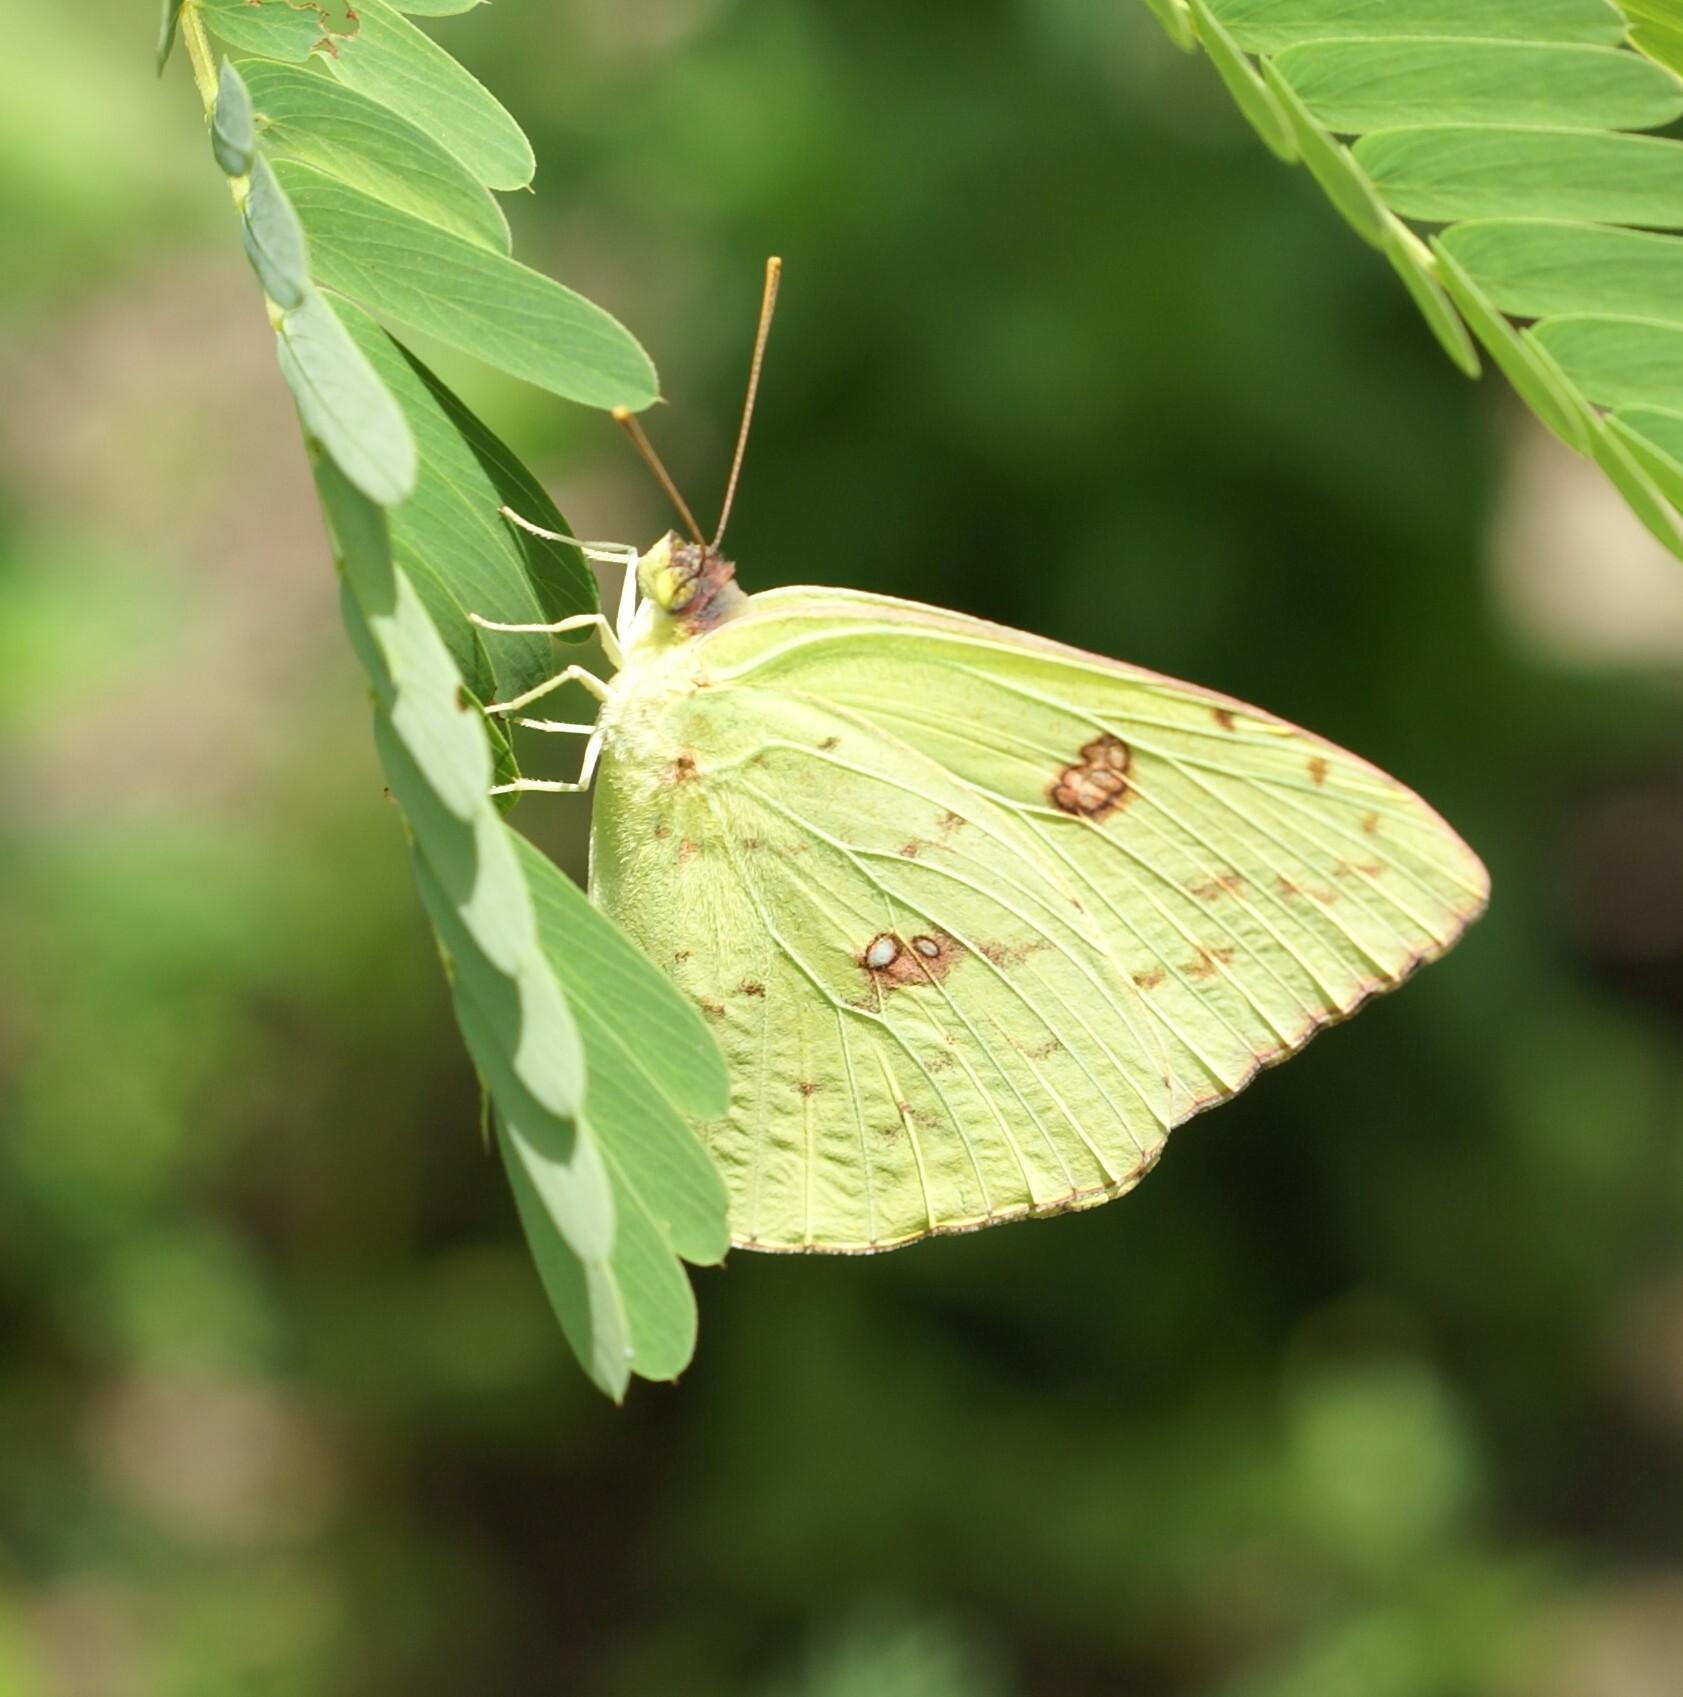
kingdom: Animalia
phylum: Arthropoda
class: Insecta
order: Lepidoptera
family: Pieridae
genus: Phoebis
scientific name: Phoebis sennae
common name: Cloudless sulphur
